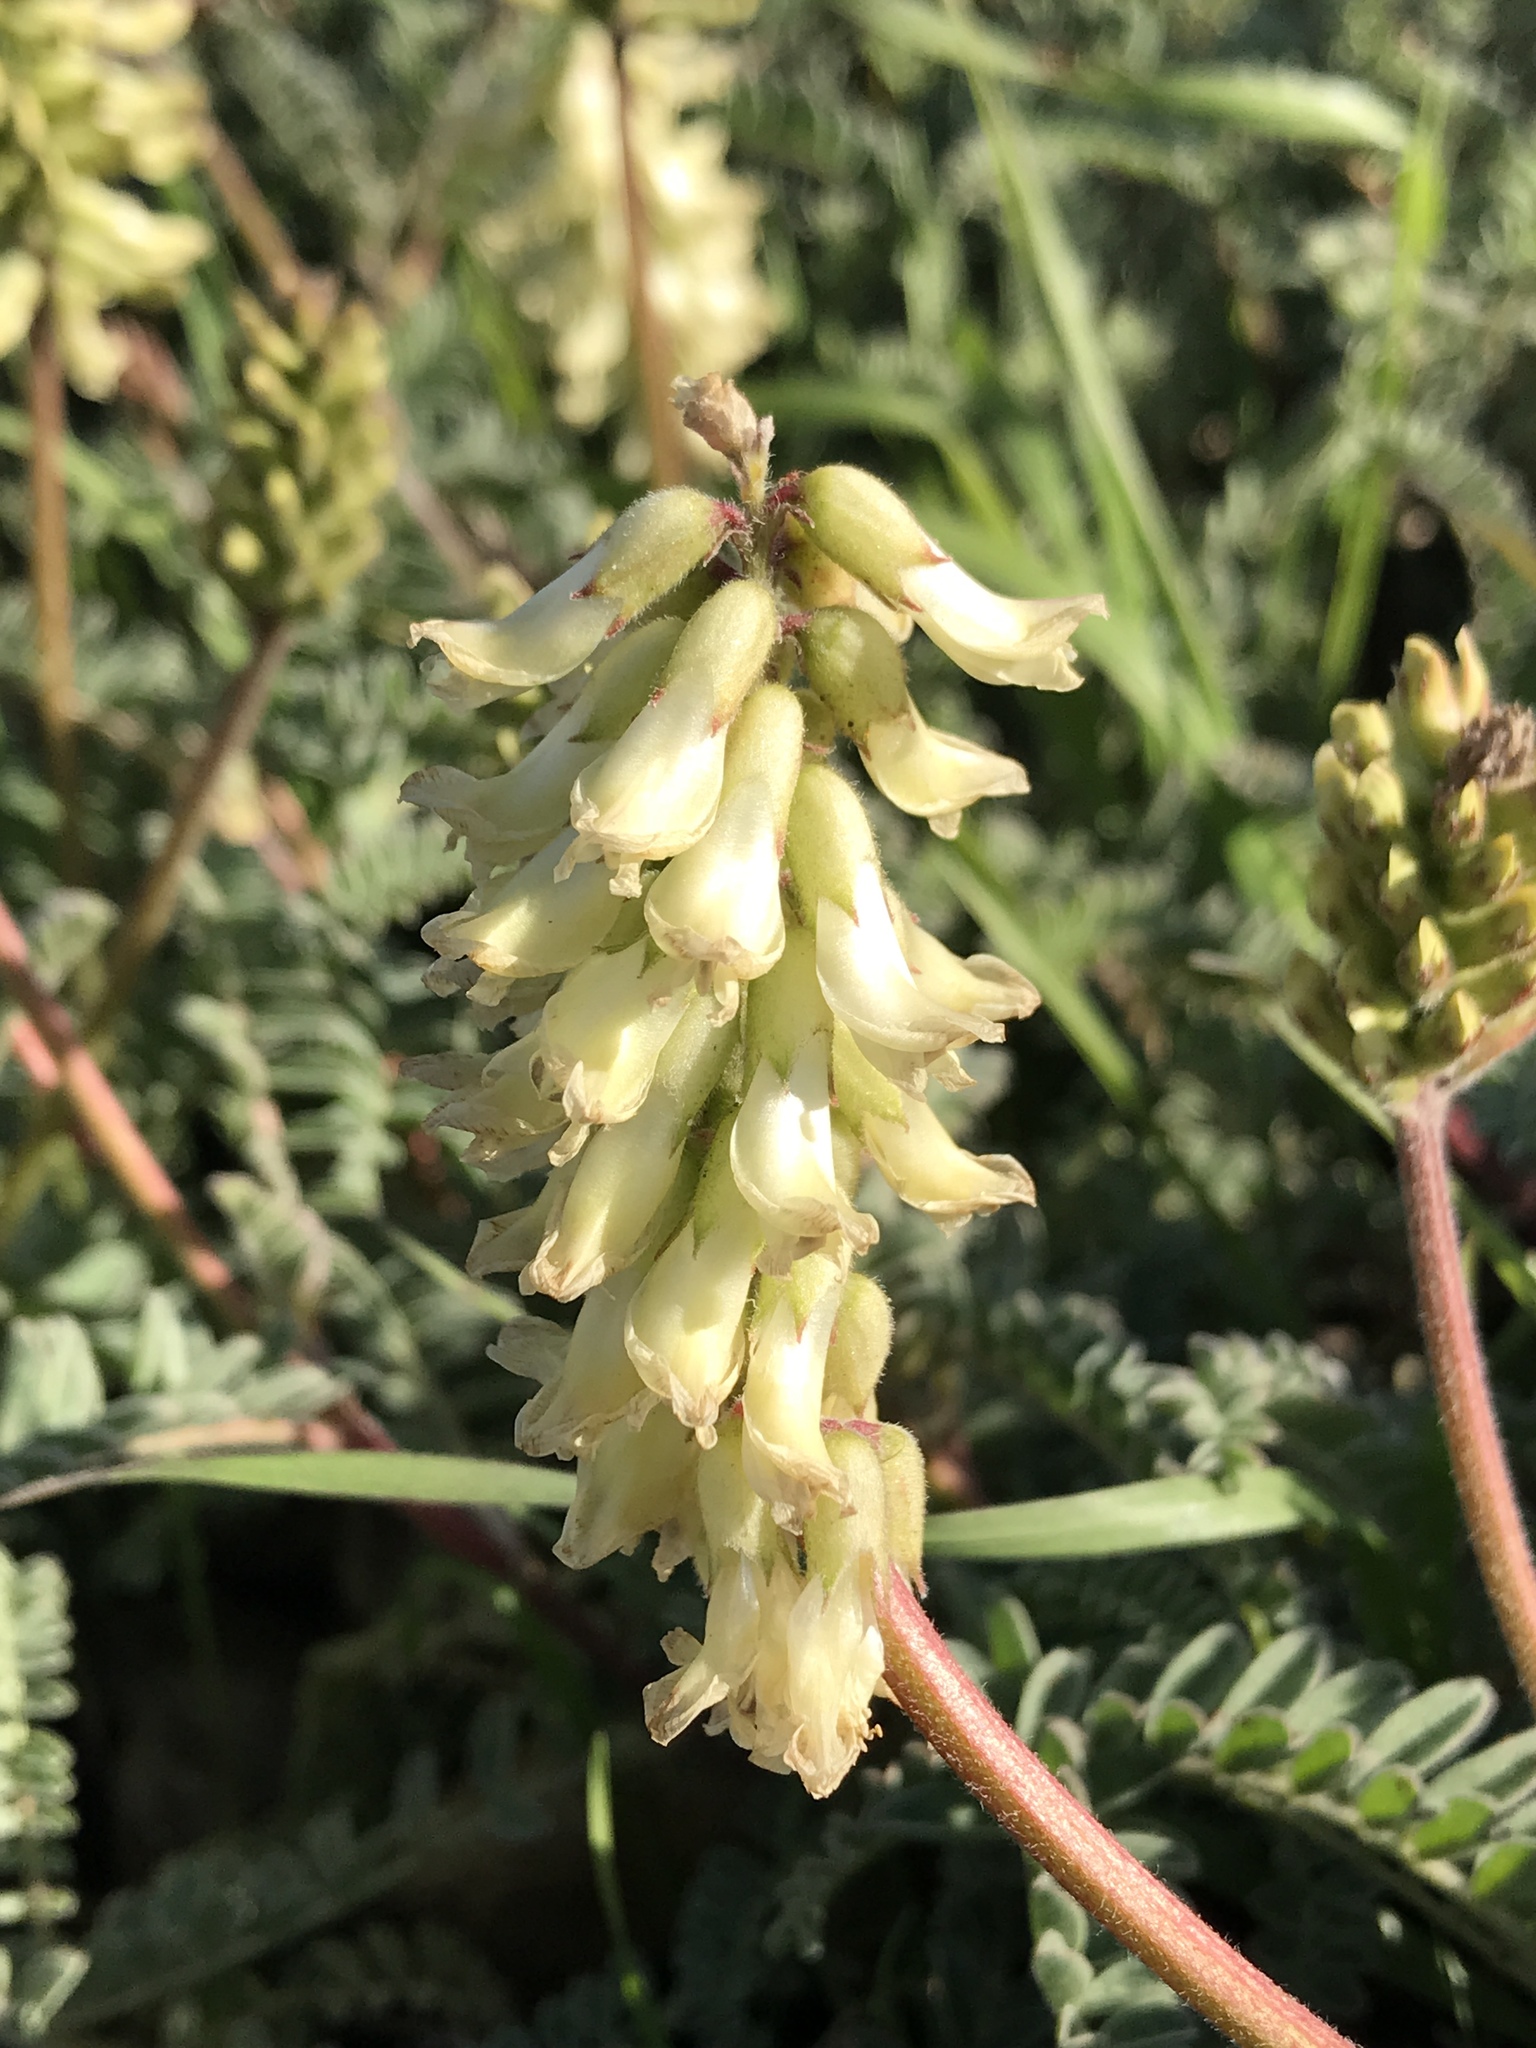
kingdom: Plantae
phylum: Tracheophyta
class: Magnoliopsida
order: Fabales
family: Fabaceae
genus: Astragalus
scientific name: Astragalus nuttallii
